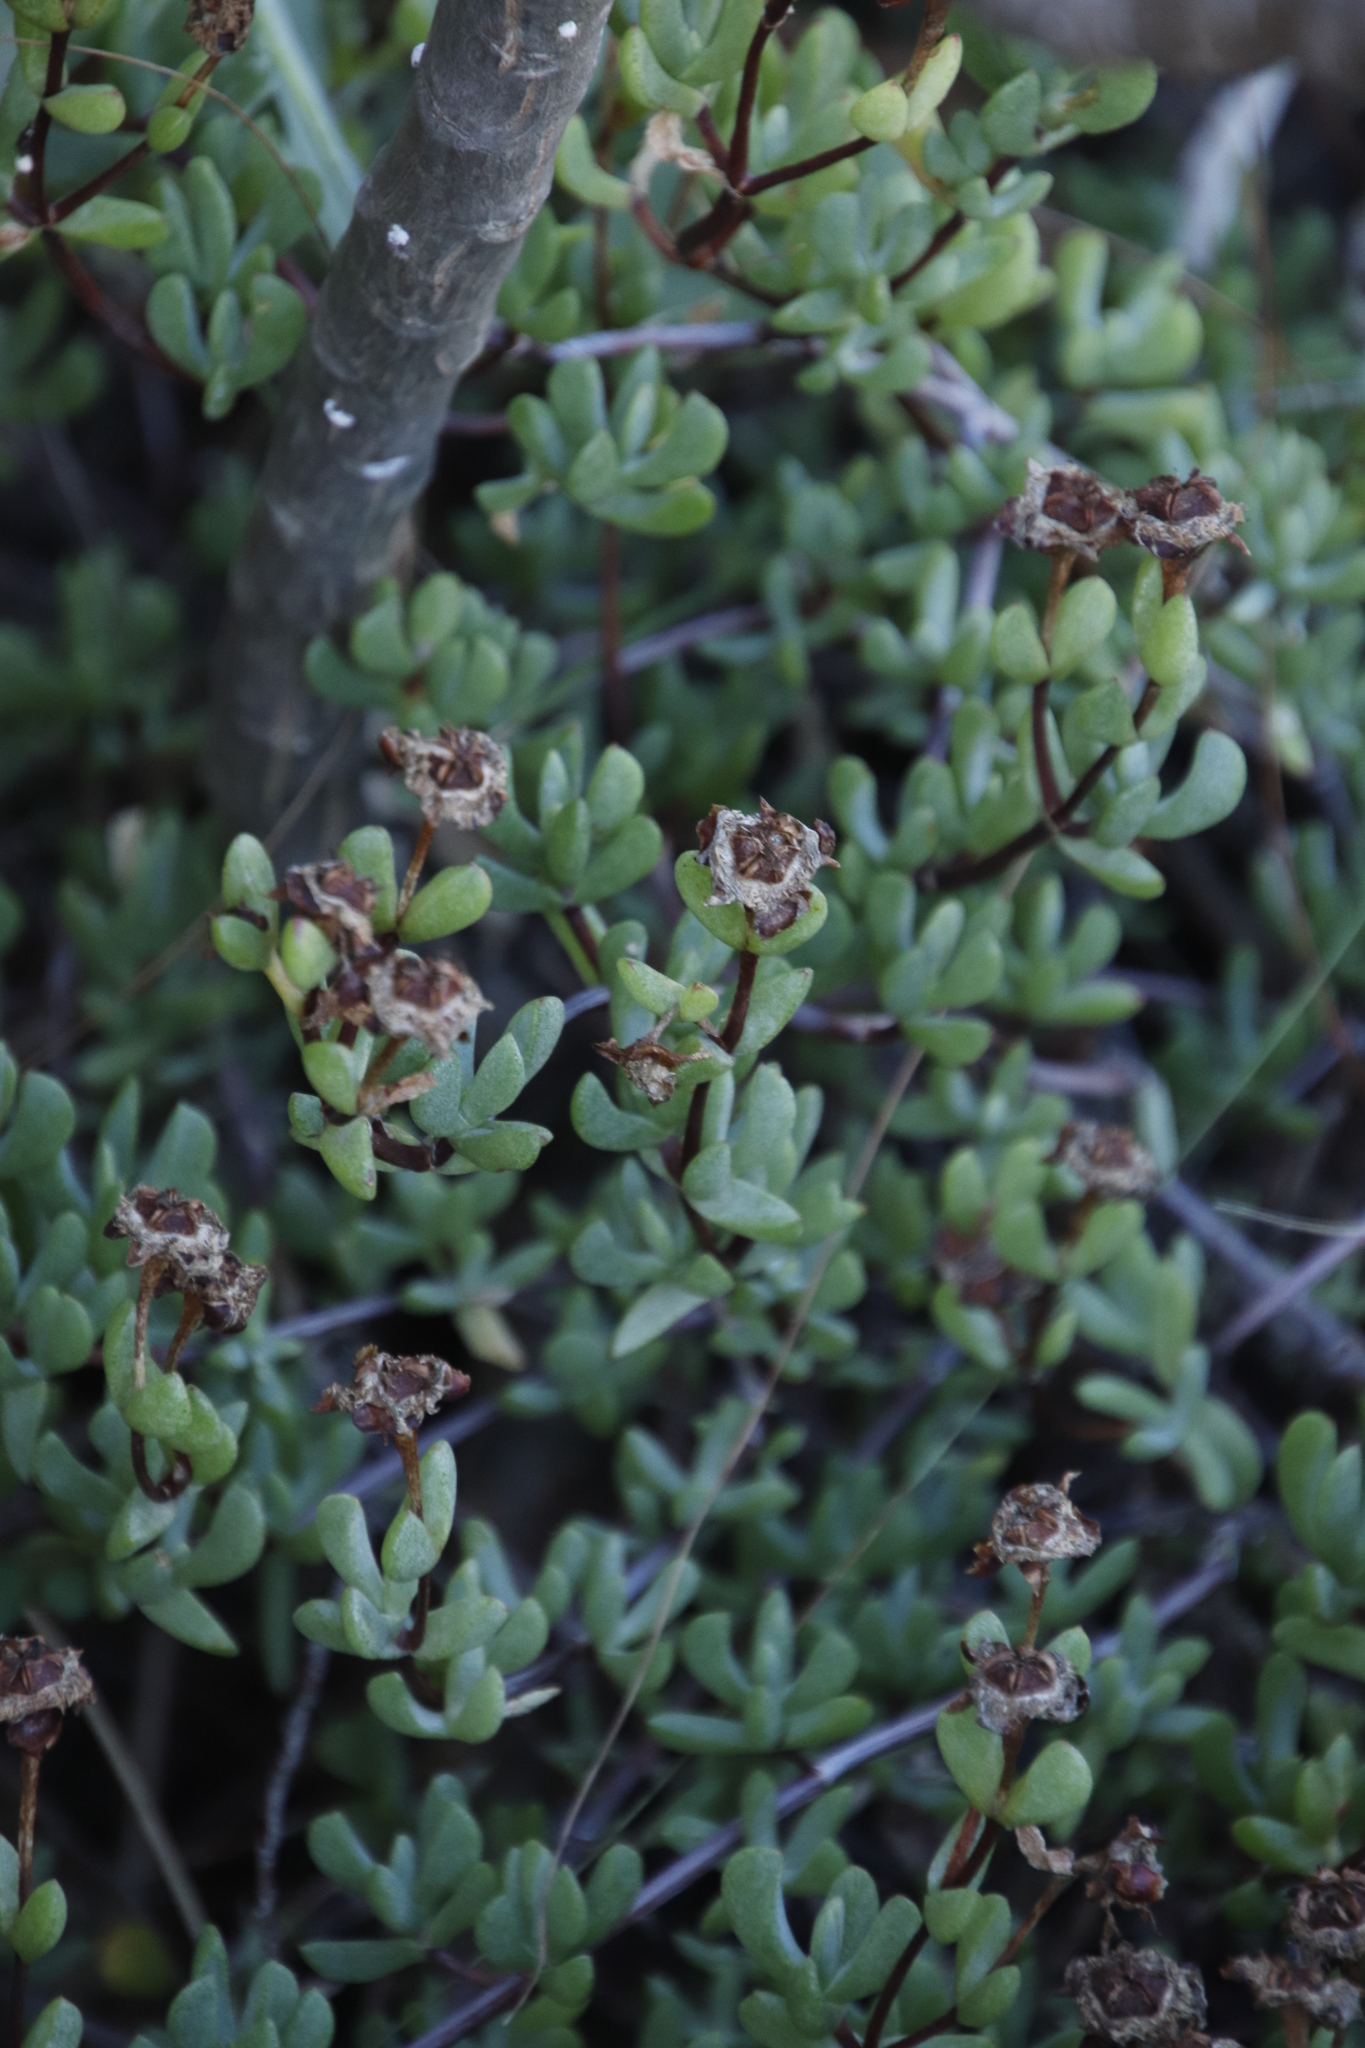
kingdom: Plantae
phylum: Tracheophyta
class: Magnoliopsida
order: Caryophyllales
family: Aizoaceae
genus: Oscularia
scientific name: Oscularia falciformis
